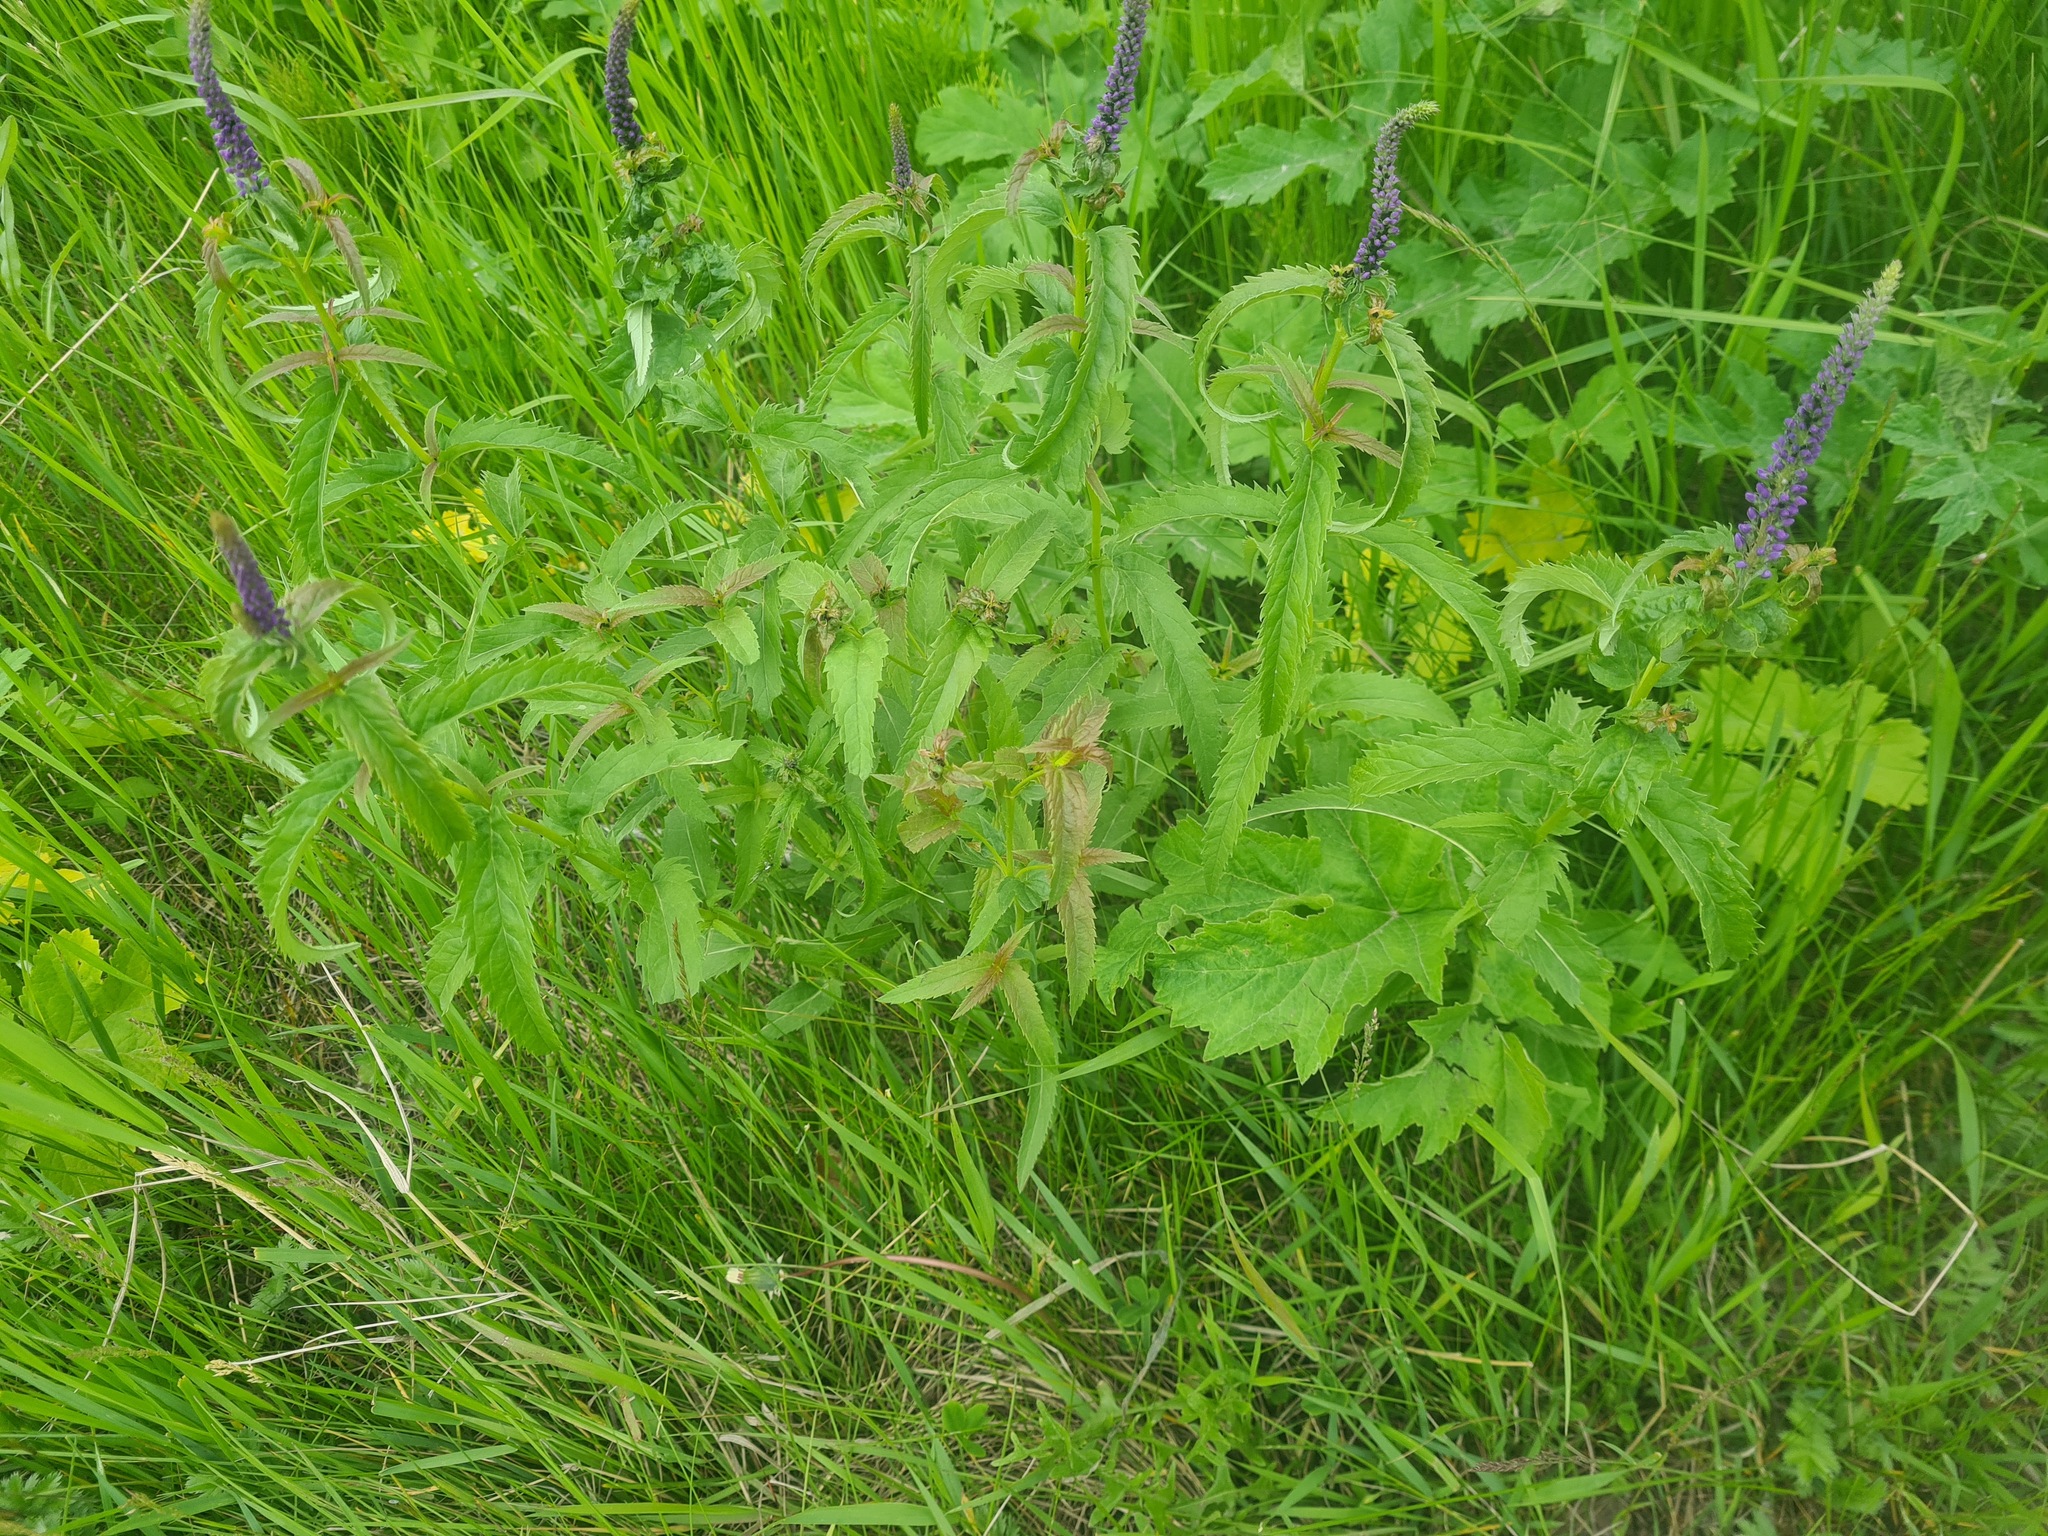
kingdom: Plantae
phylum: Tracheophyta
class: Magnoliopsida
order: Lamiales
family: Plantaginaceae
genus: Veronica
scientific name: Veronica longifolia
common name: Garden speedwell
